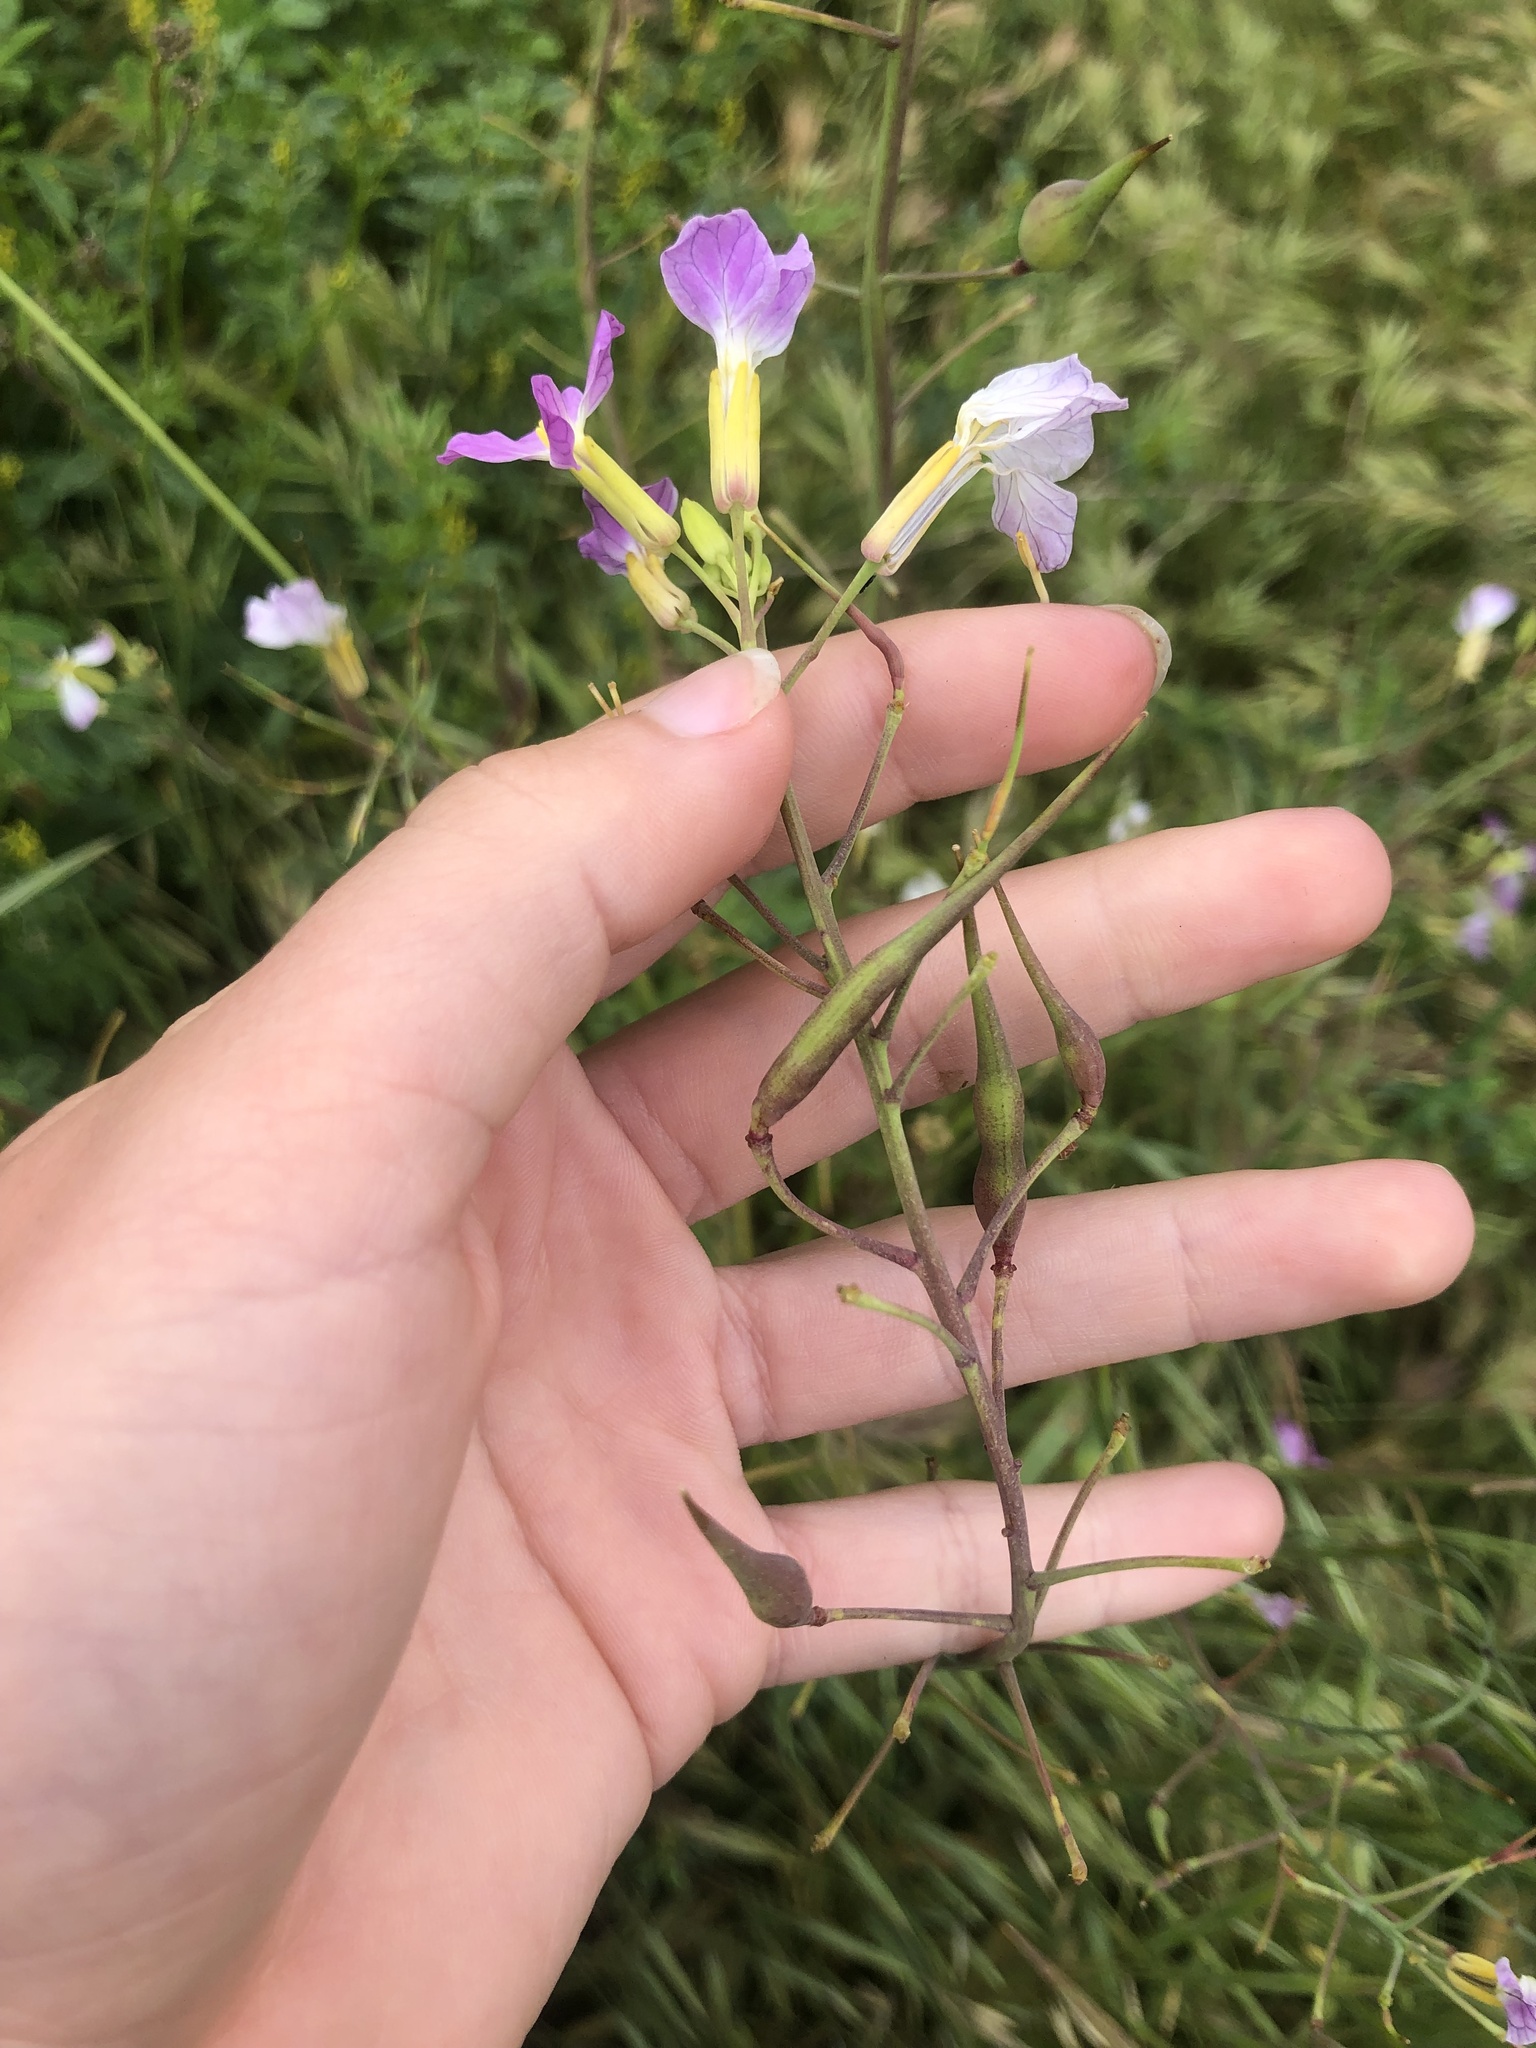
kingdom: Plantae
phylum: Tracheophyta
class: Magnoliopsida
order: Brassicales
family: Brassicaceae
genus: Raphanus
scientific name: Raphanus sativus
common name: Cultivated radish
